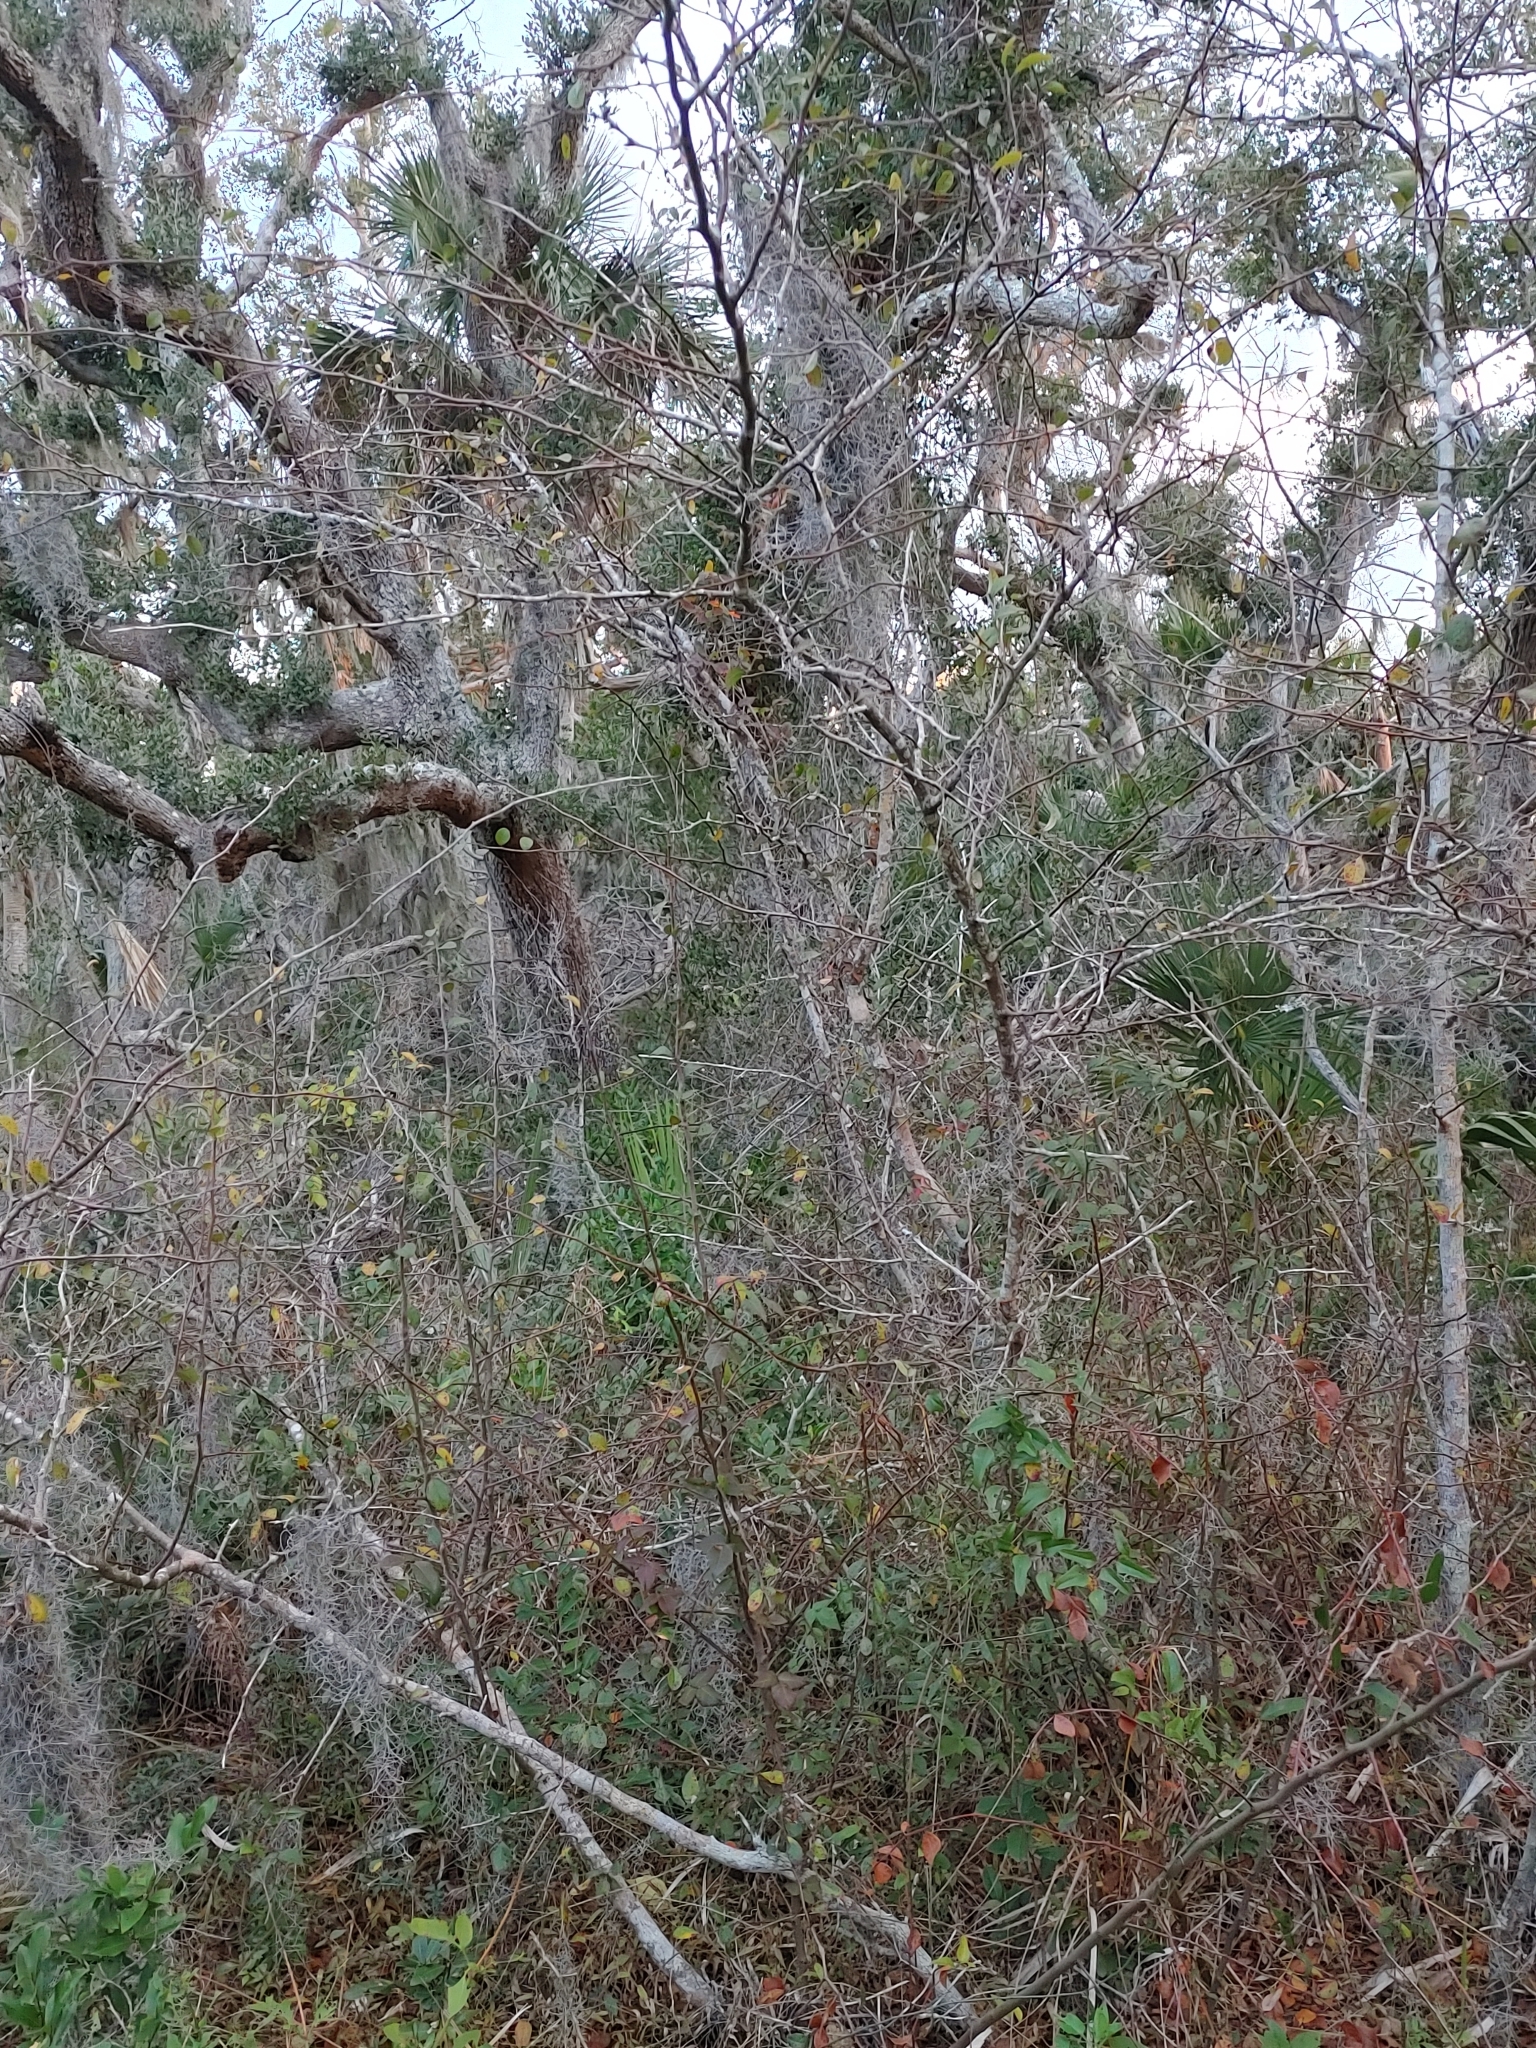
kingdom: Plantae
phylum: Tracheophyta
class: Magnoliopsida
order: Ericales
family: Sapotaceae
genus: Sideroxylon
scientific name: Sideroxylon lanuginosum
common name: Chittamwood
